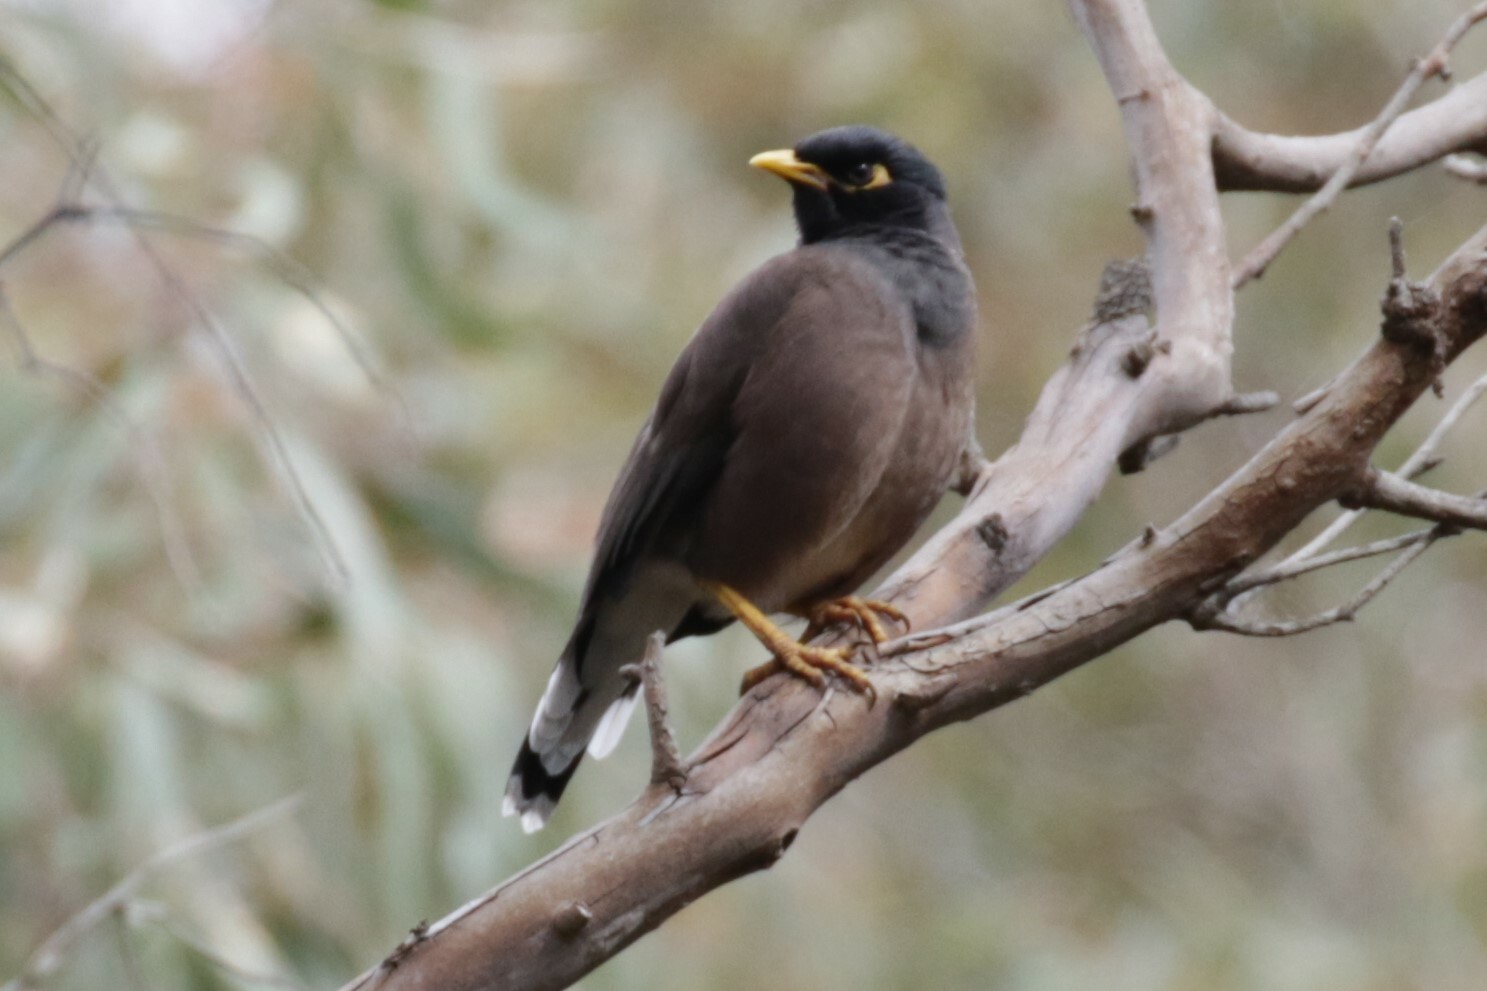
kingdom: Animalia
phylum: Chordata
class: Aves
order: Passeriformes
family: Sturnidae
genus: Acridotheres
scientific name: Acridotheres tristis
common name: Common myna
